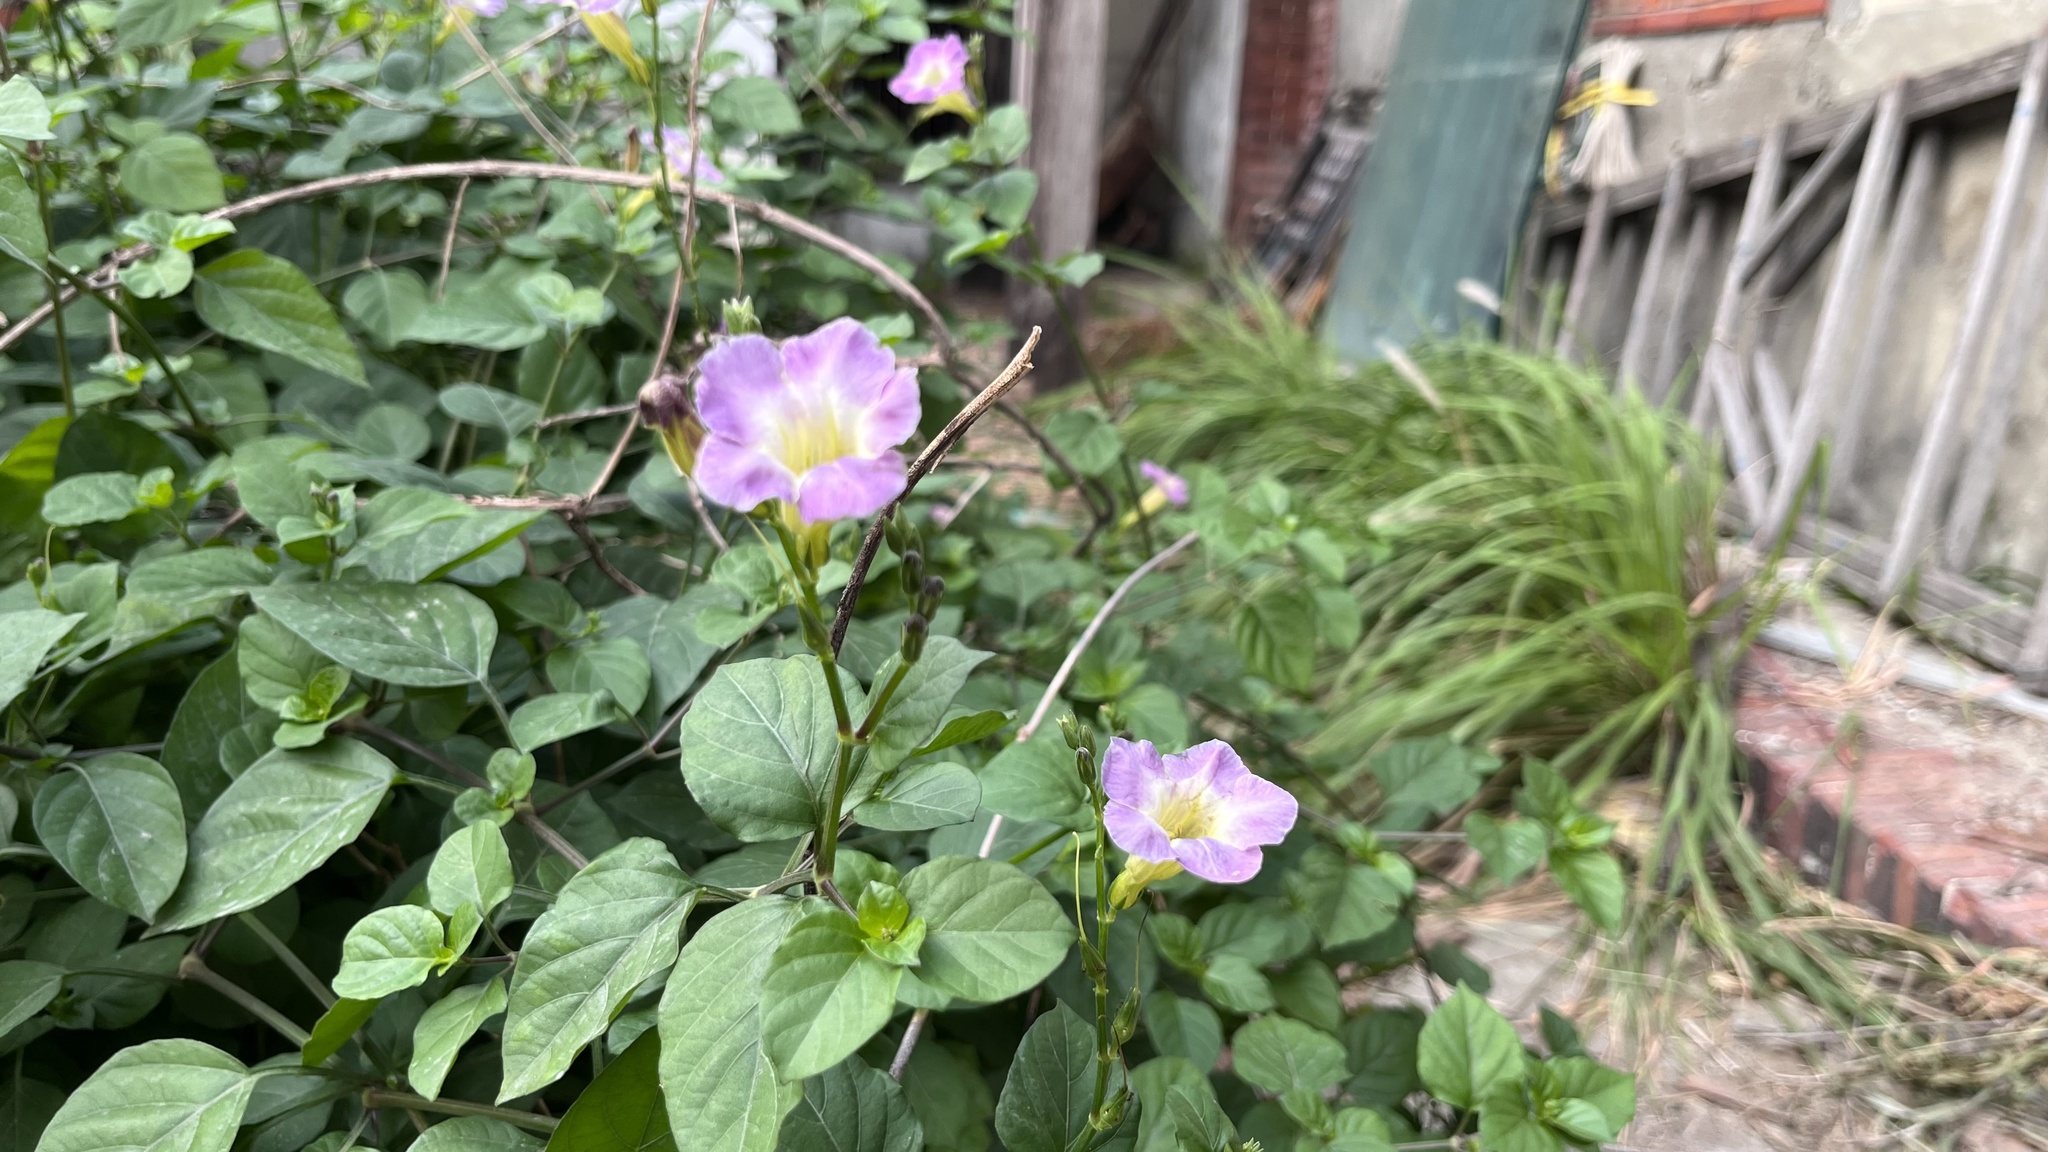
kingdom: Plantae
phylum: Tracheophyta
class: Magnoliopsida
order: Lamiales
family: Acanthaceae
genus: Asystasia
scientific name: Asystasia gangetica
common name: Chinese violet
